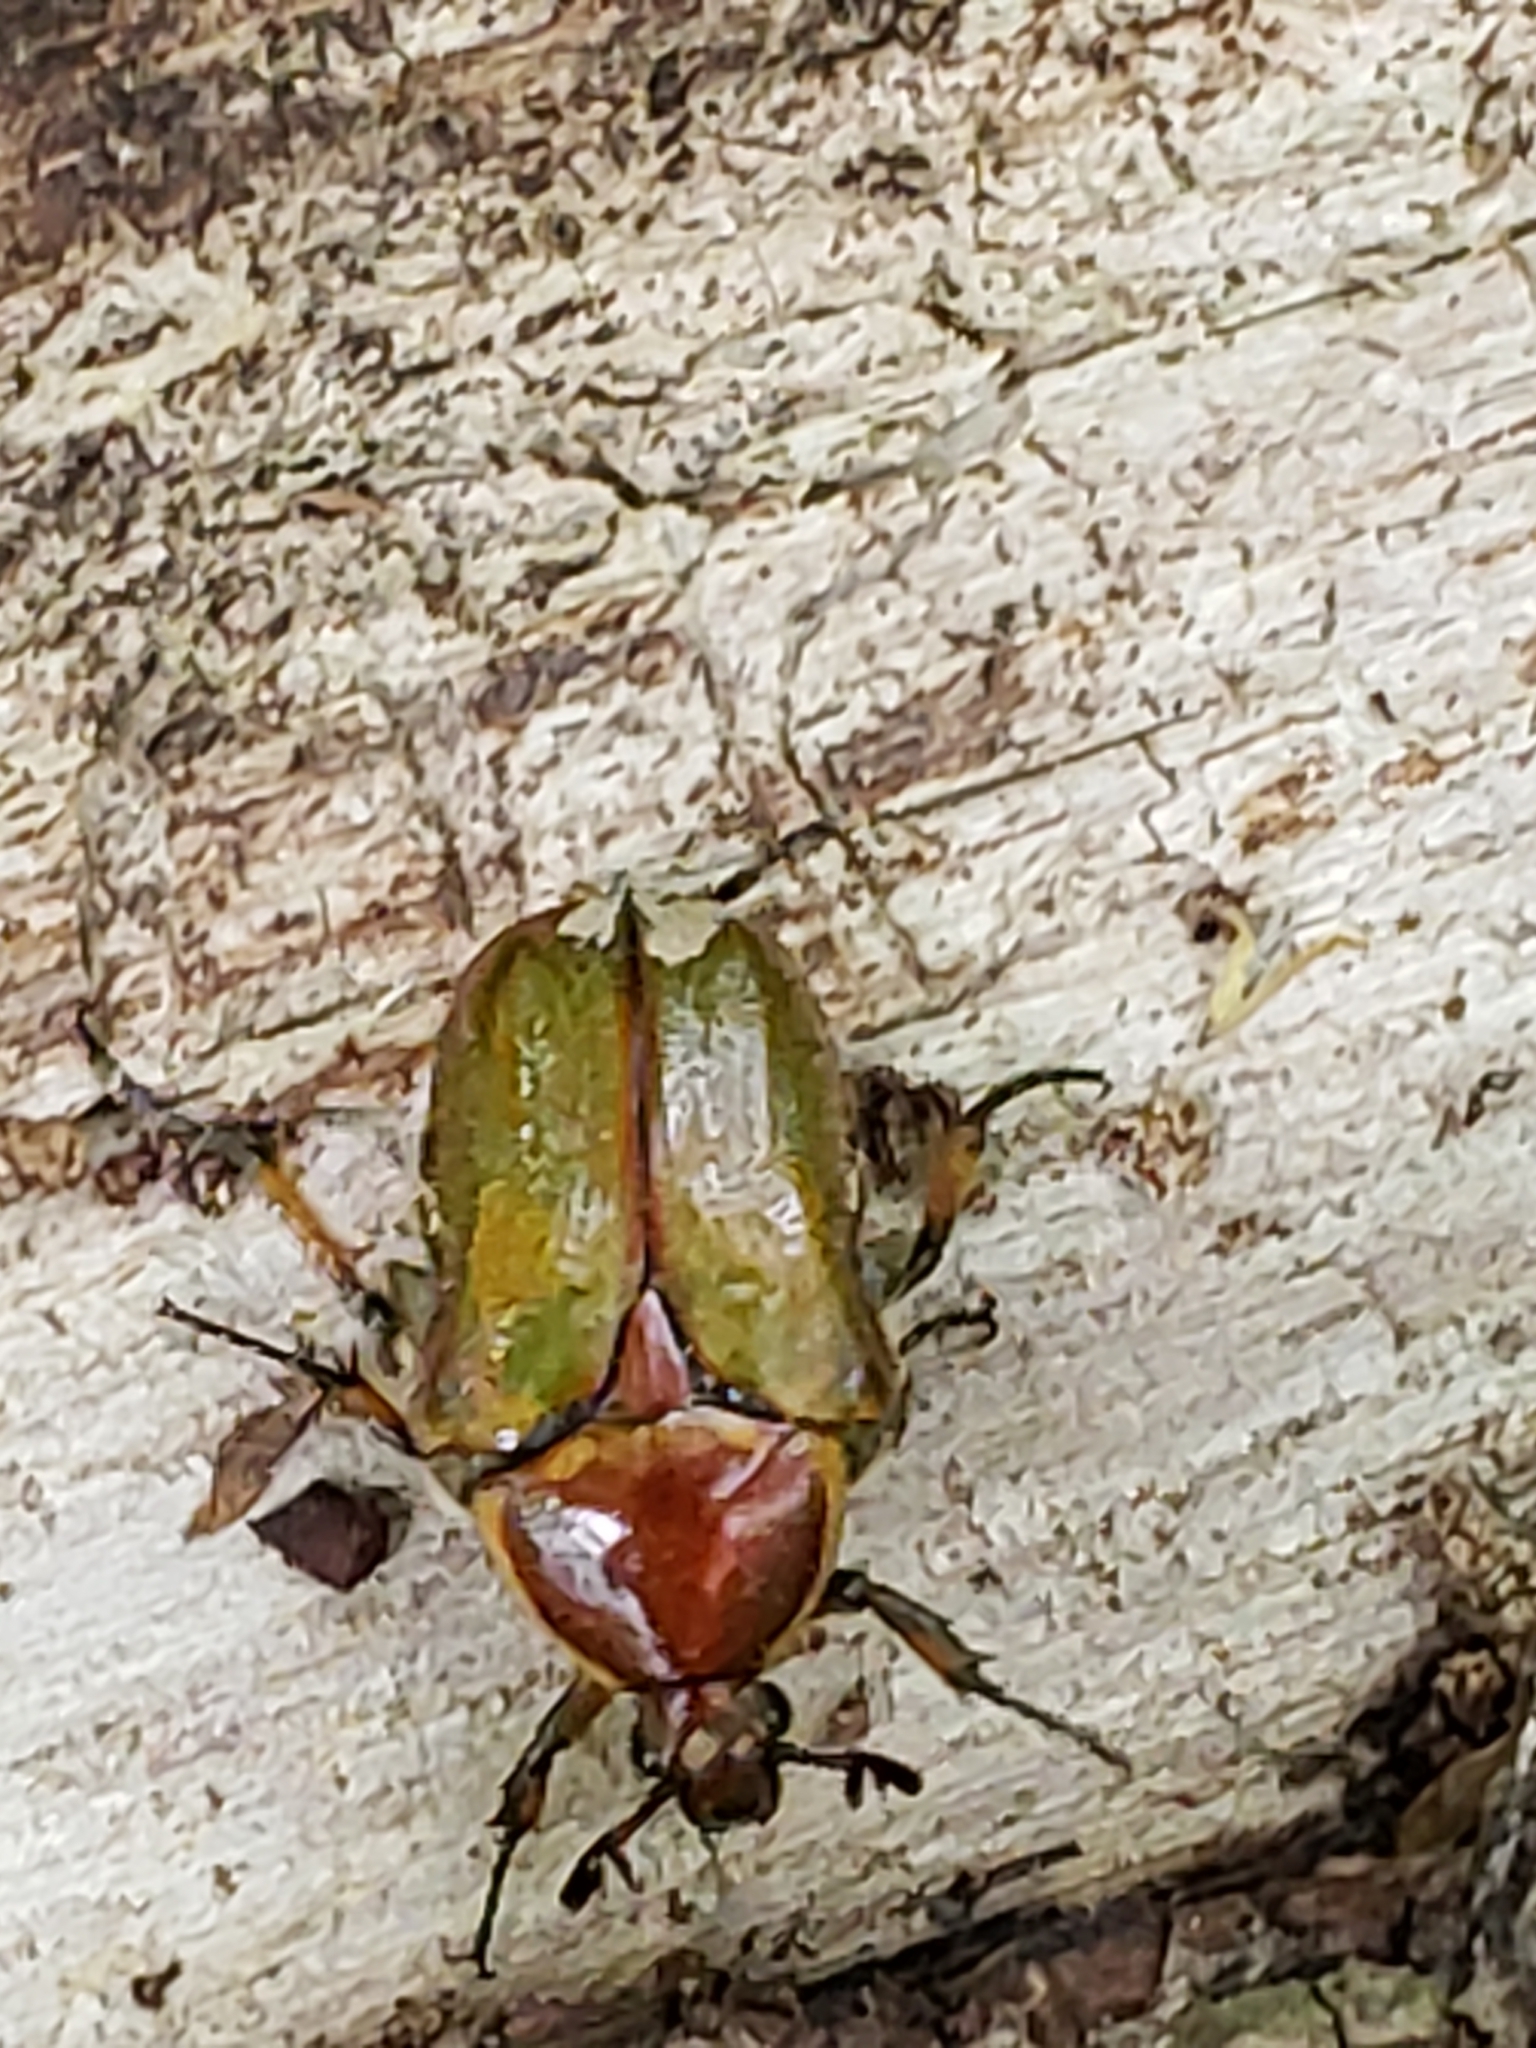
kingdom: Animalia
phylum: Arthropoda
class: Insecta
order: Coleoptera
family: Scarabaeidae
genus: Euphoria
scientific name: Euphoria fulgida
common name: Emerald euphoria
